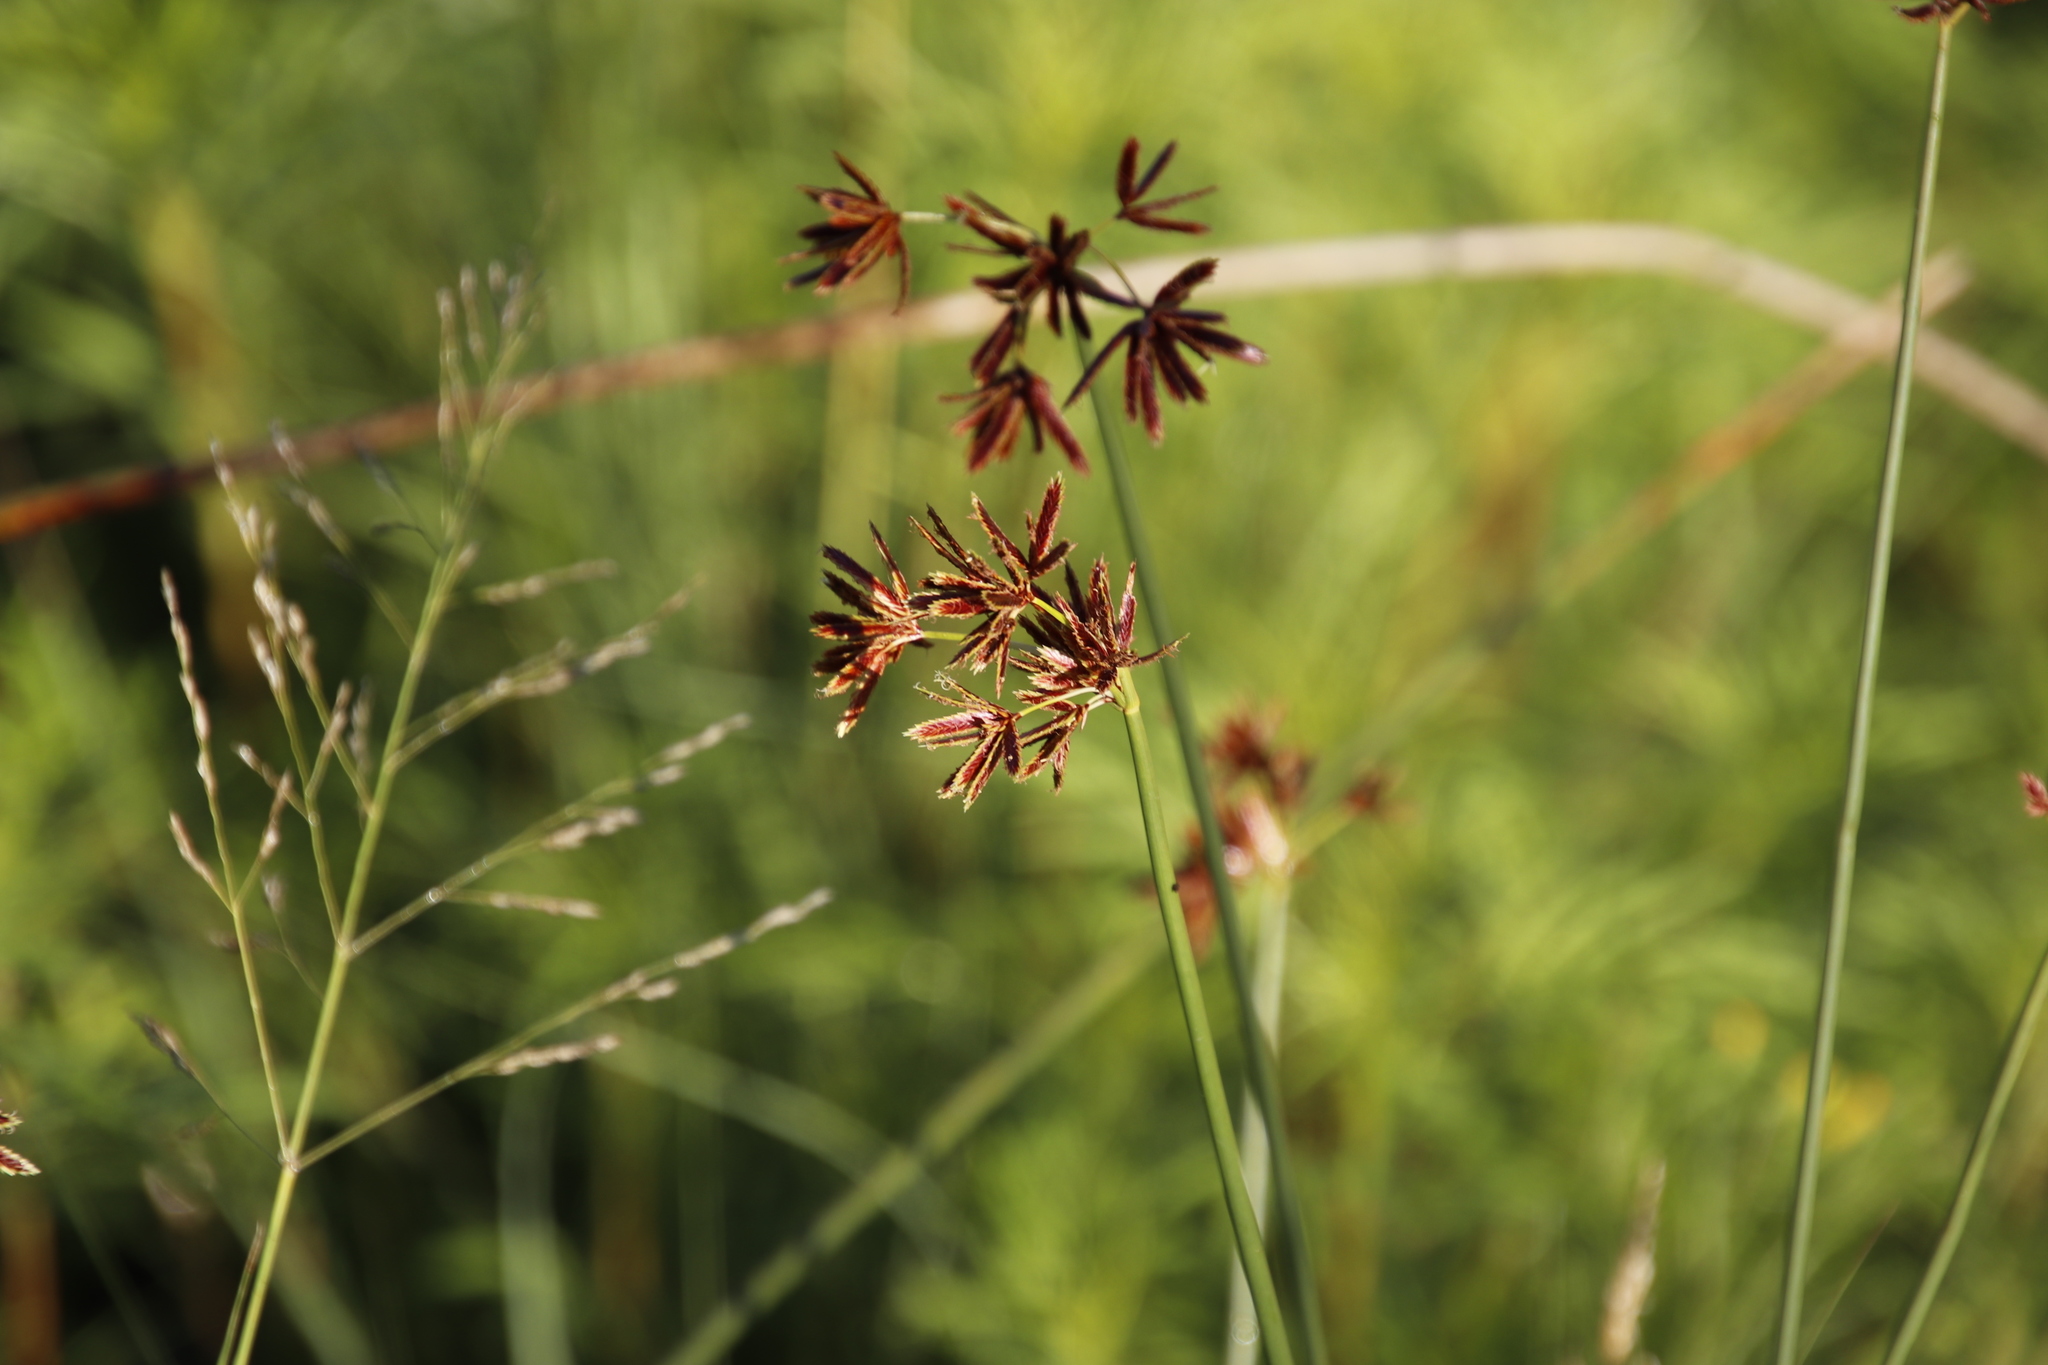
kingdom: Plantae
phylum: Tracheophyta
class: Liliopsida
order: Poales
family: Cyperaceae
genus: Cyperus
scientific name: Cyperus marginatus
